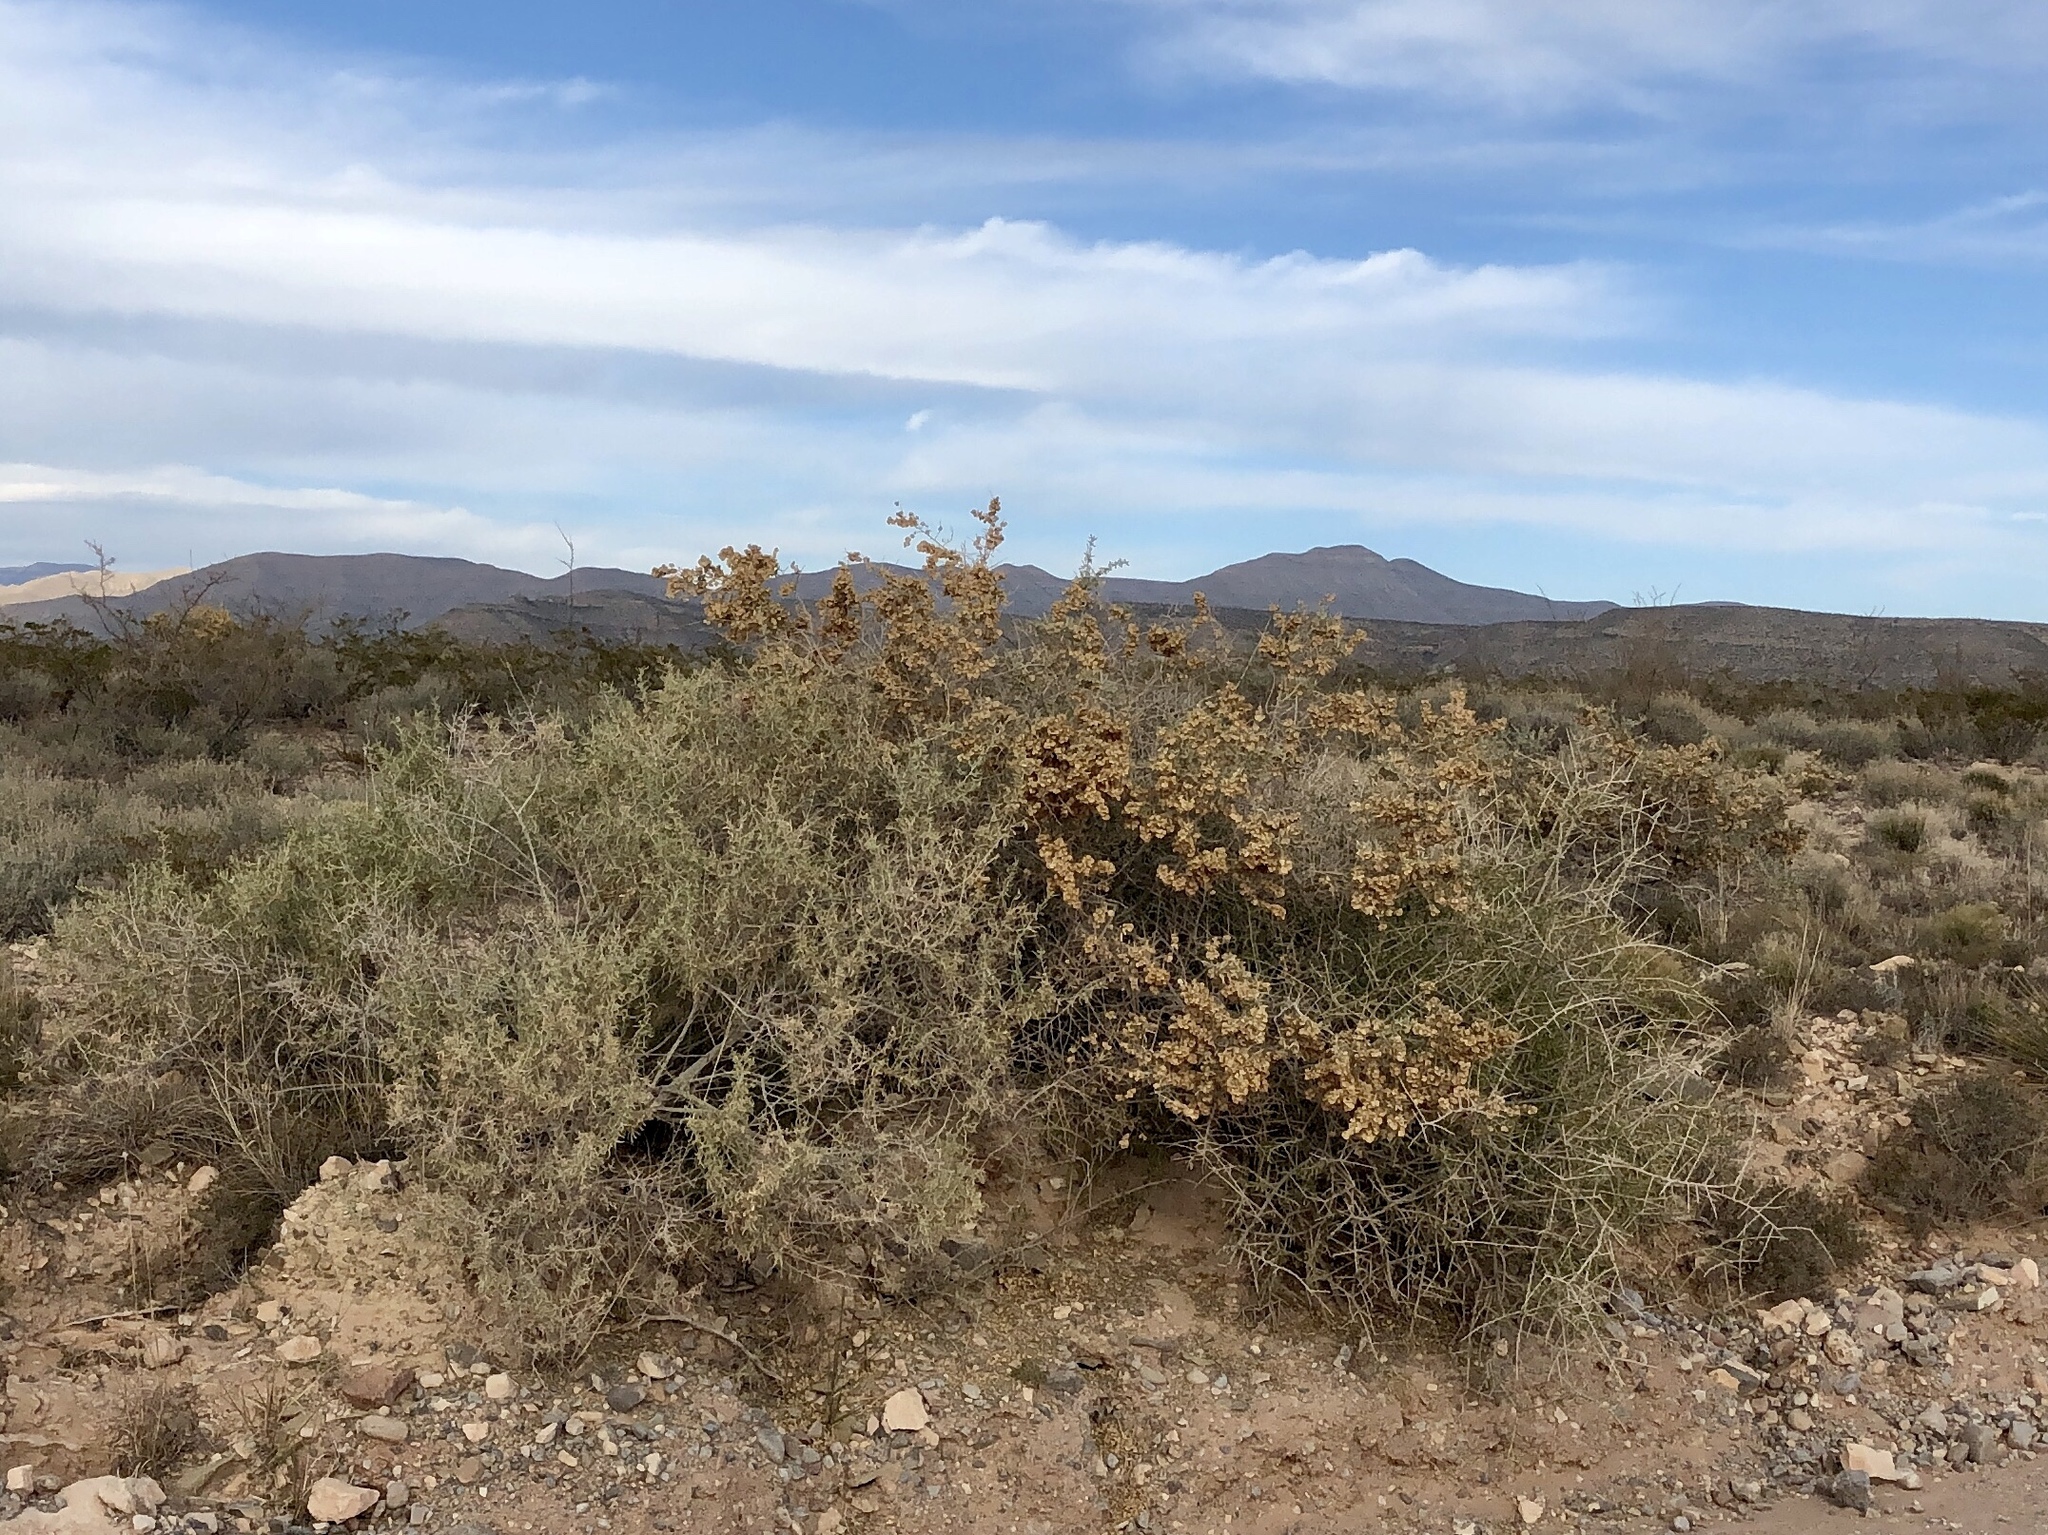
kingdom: Plantae
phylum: Tracheophyta
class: Magnoliopsida
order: Caryophyllales
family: Amaranthaceae
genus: Atriplex
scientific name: Atriplex canescens
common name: Four-wing saltbush
